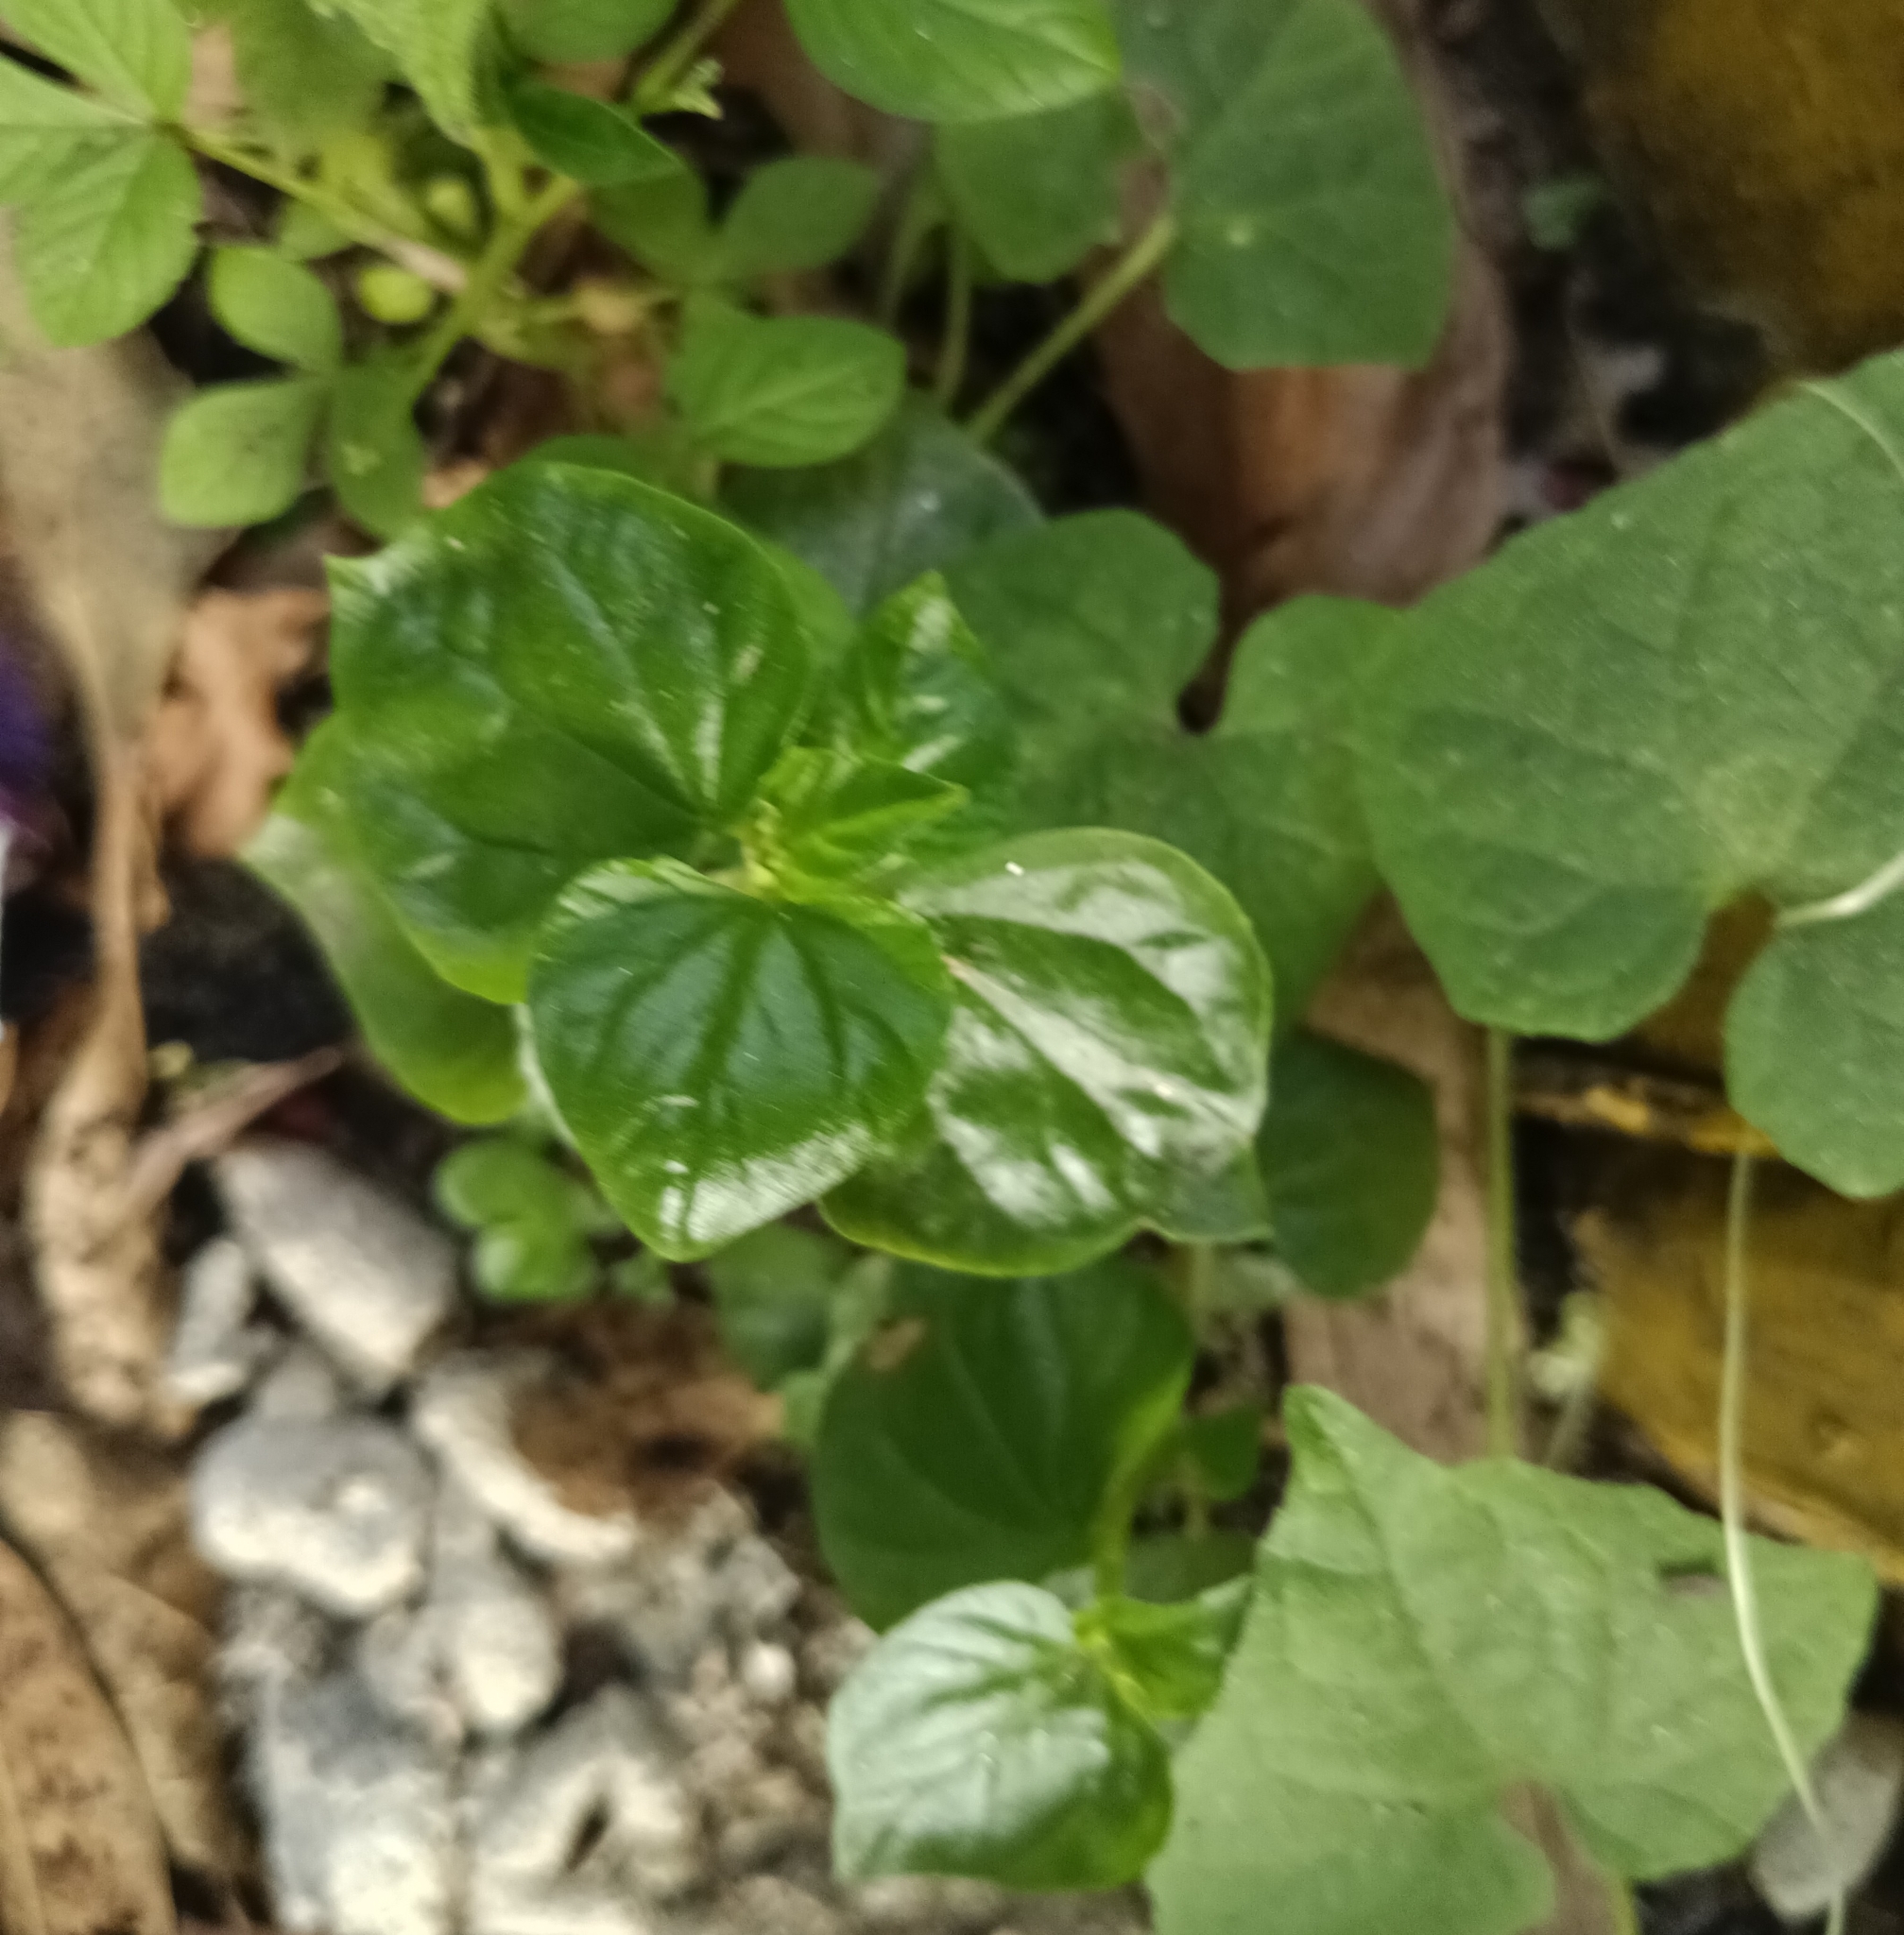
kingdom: Plantae
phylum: Tracheophyta
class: Magnoliopsida
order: Piperales
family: Piperaceae
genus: Peperomia
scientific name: Peperomia pellucida
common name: Man to man
